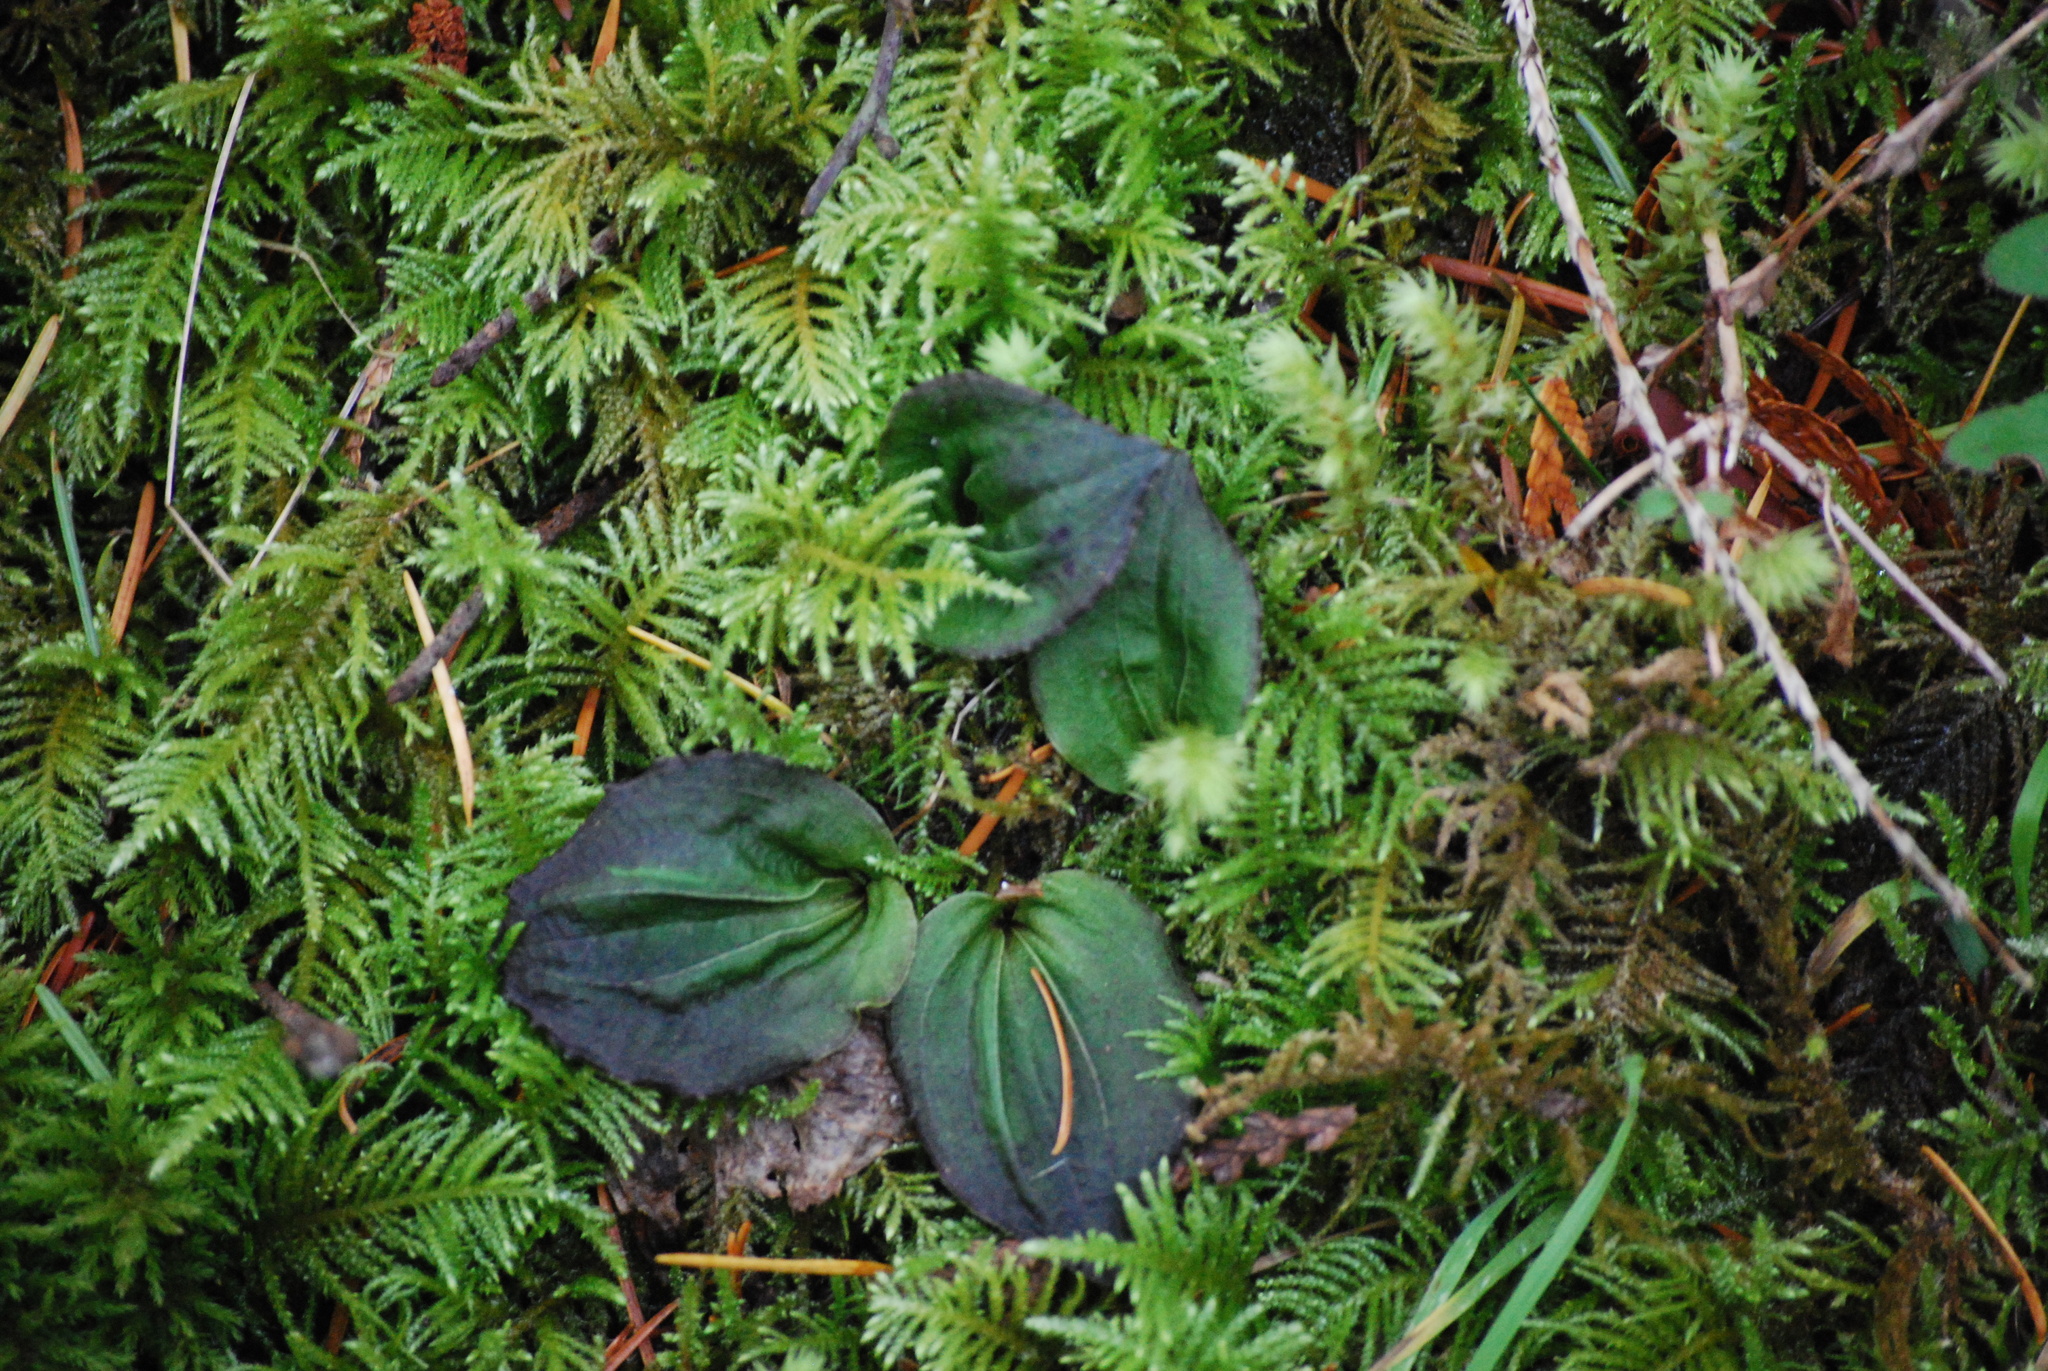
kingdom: Plantae
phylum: Tracheophyta
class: Liliopsida
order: Asparagales
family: Orchidaceae
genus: Calypso
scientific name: Calypso bulbosa
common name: Calypso
